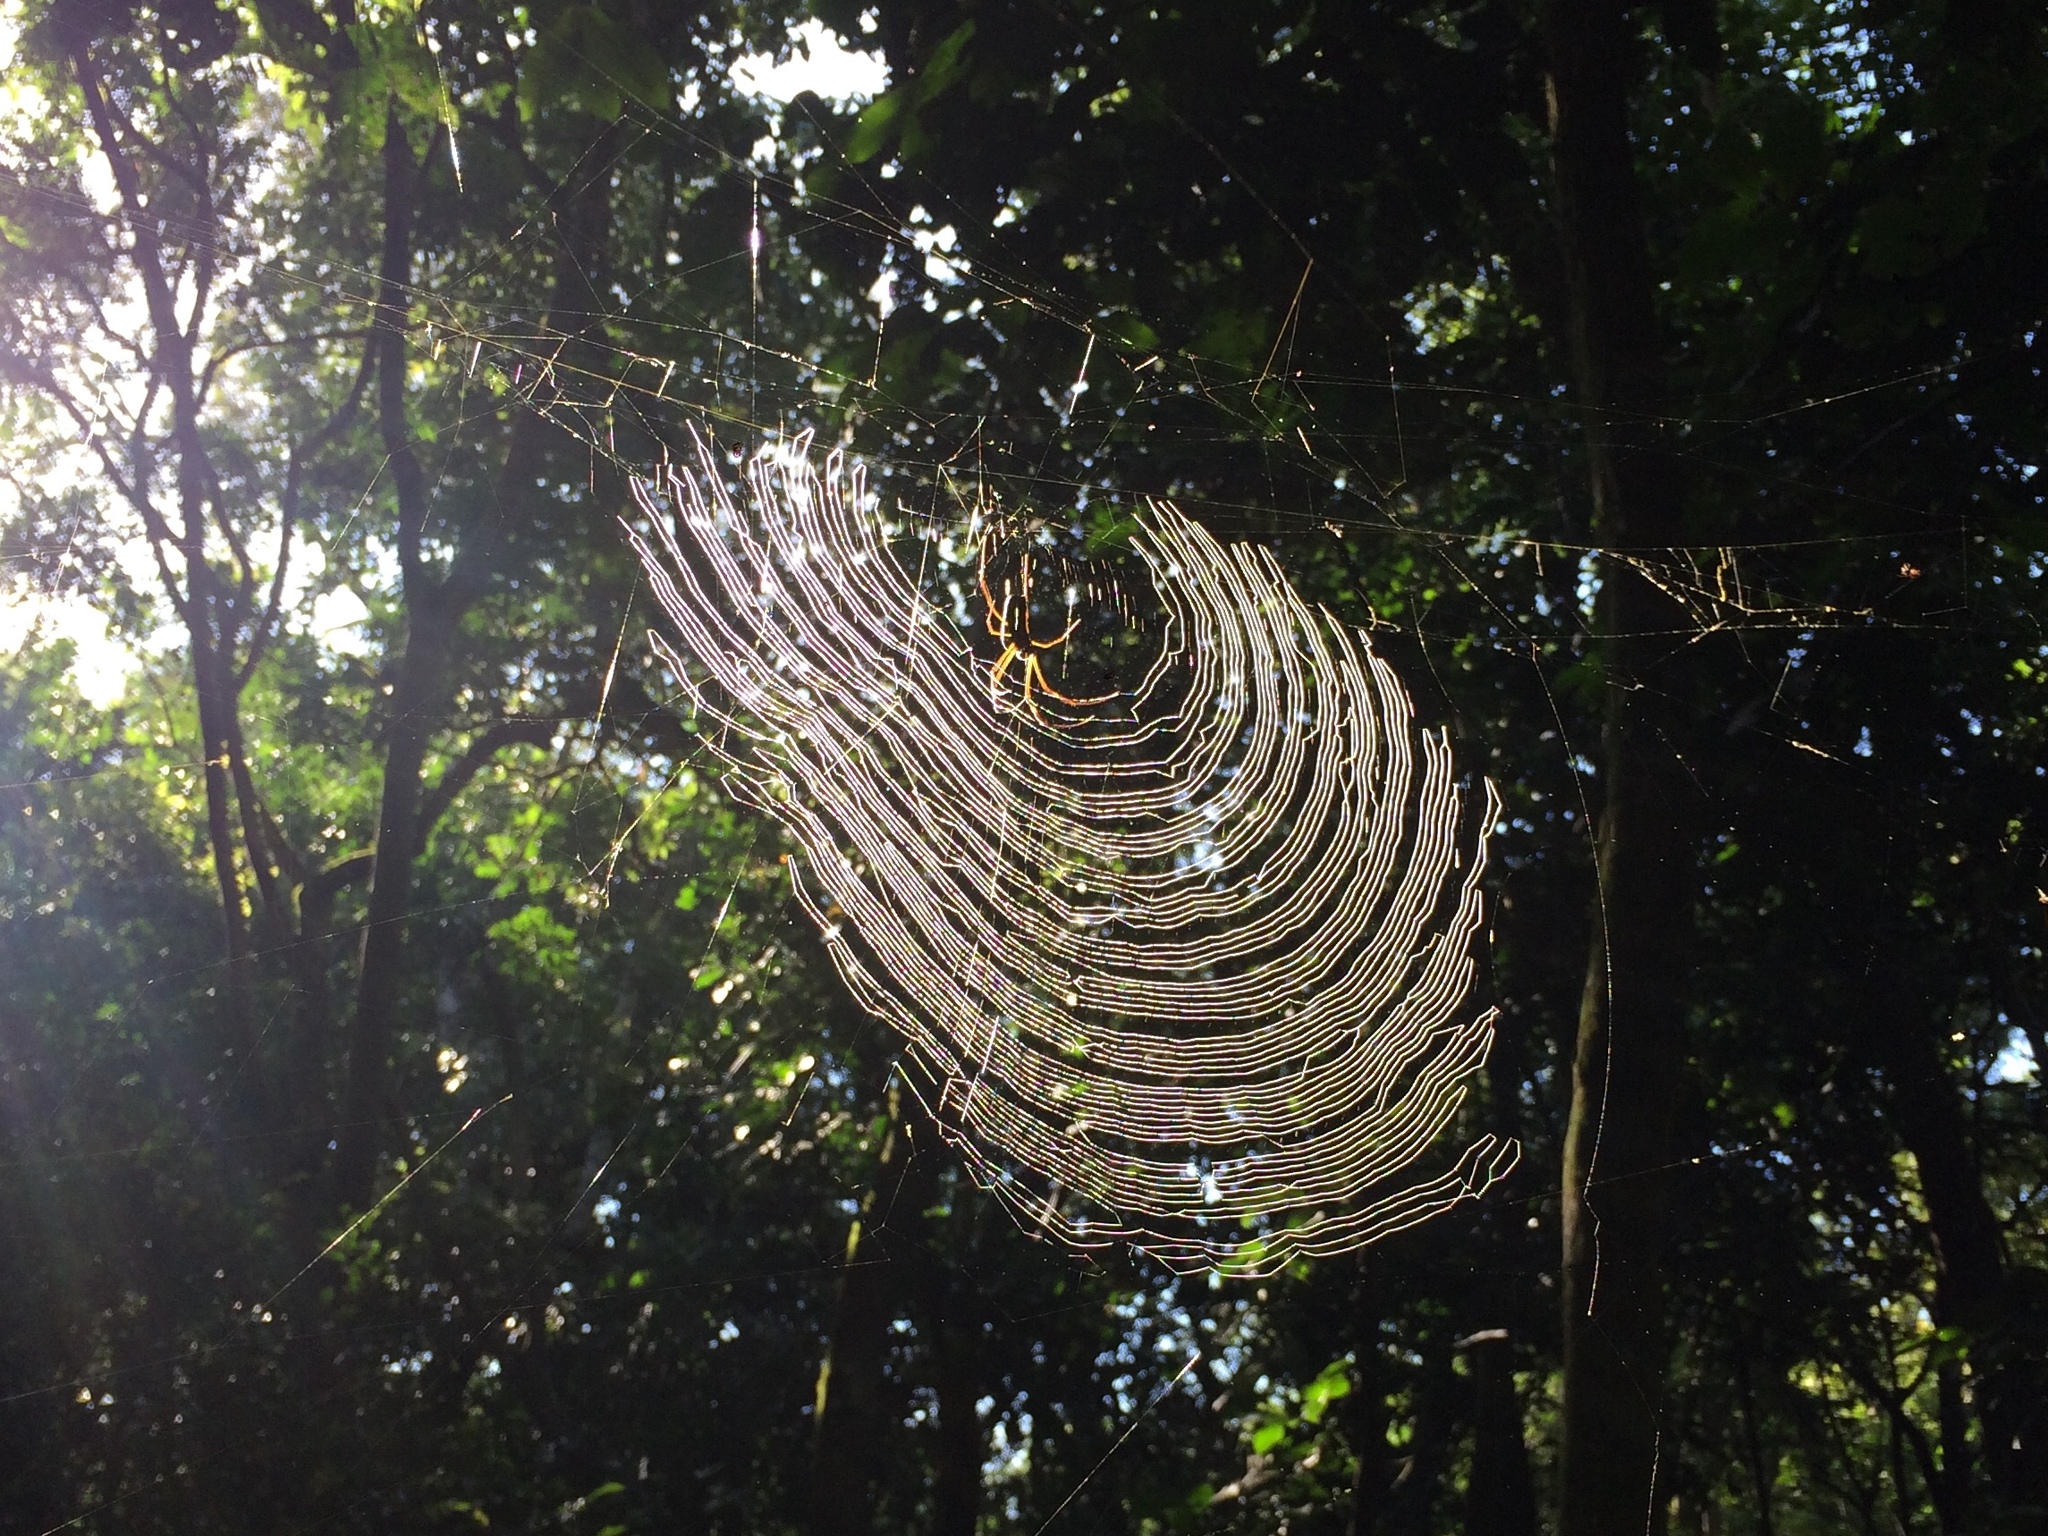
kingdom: Animalia
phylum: Arthropoda
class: Arachnida
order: Araneae
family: Araneidae
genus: Trichonephila
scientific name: Trichonephila clavipes
